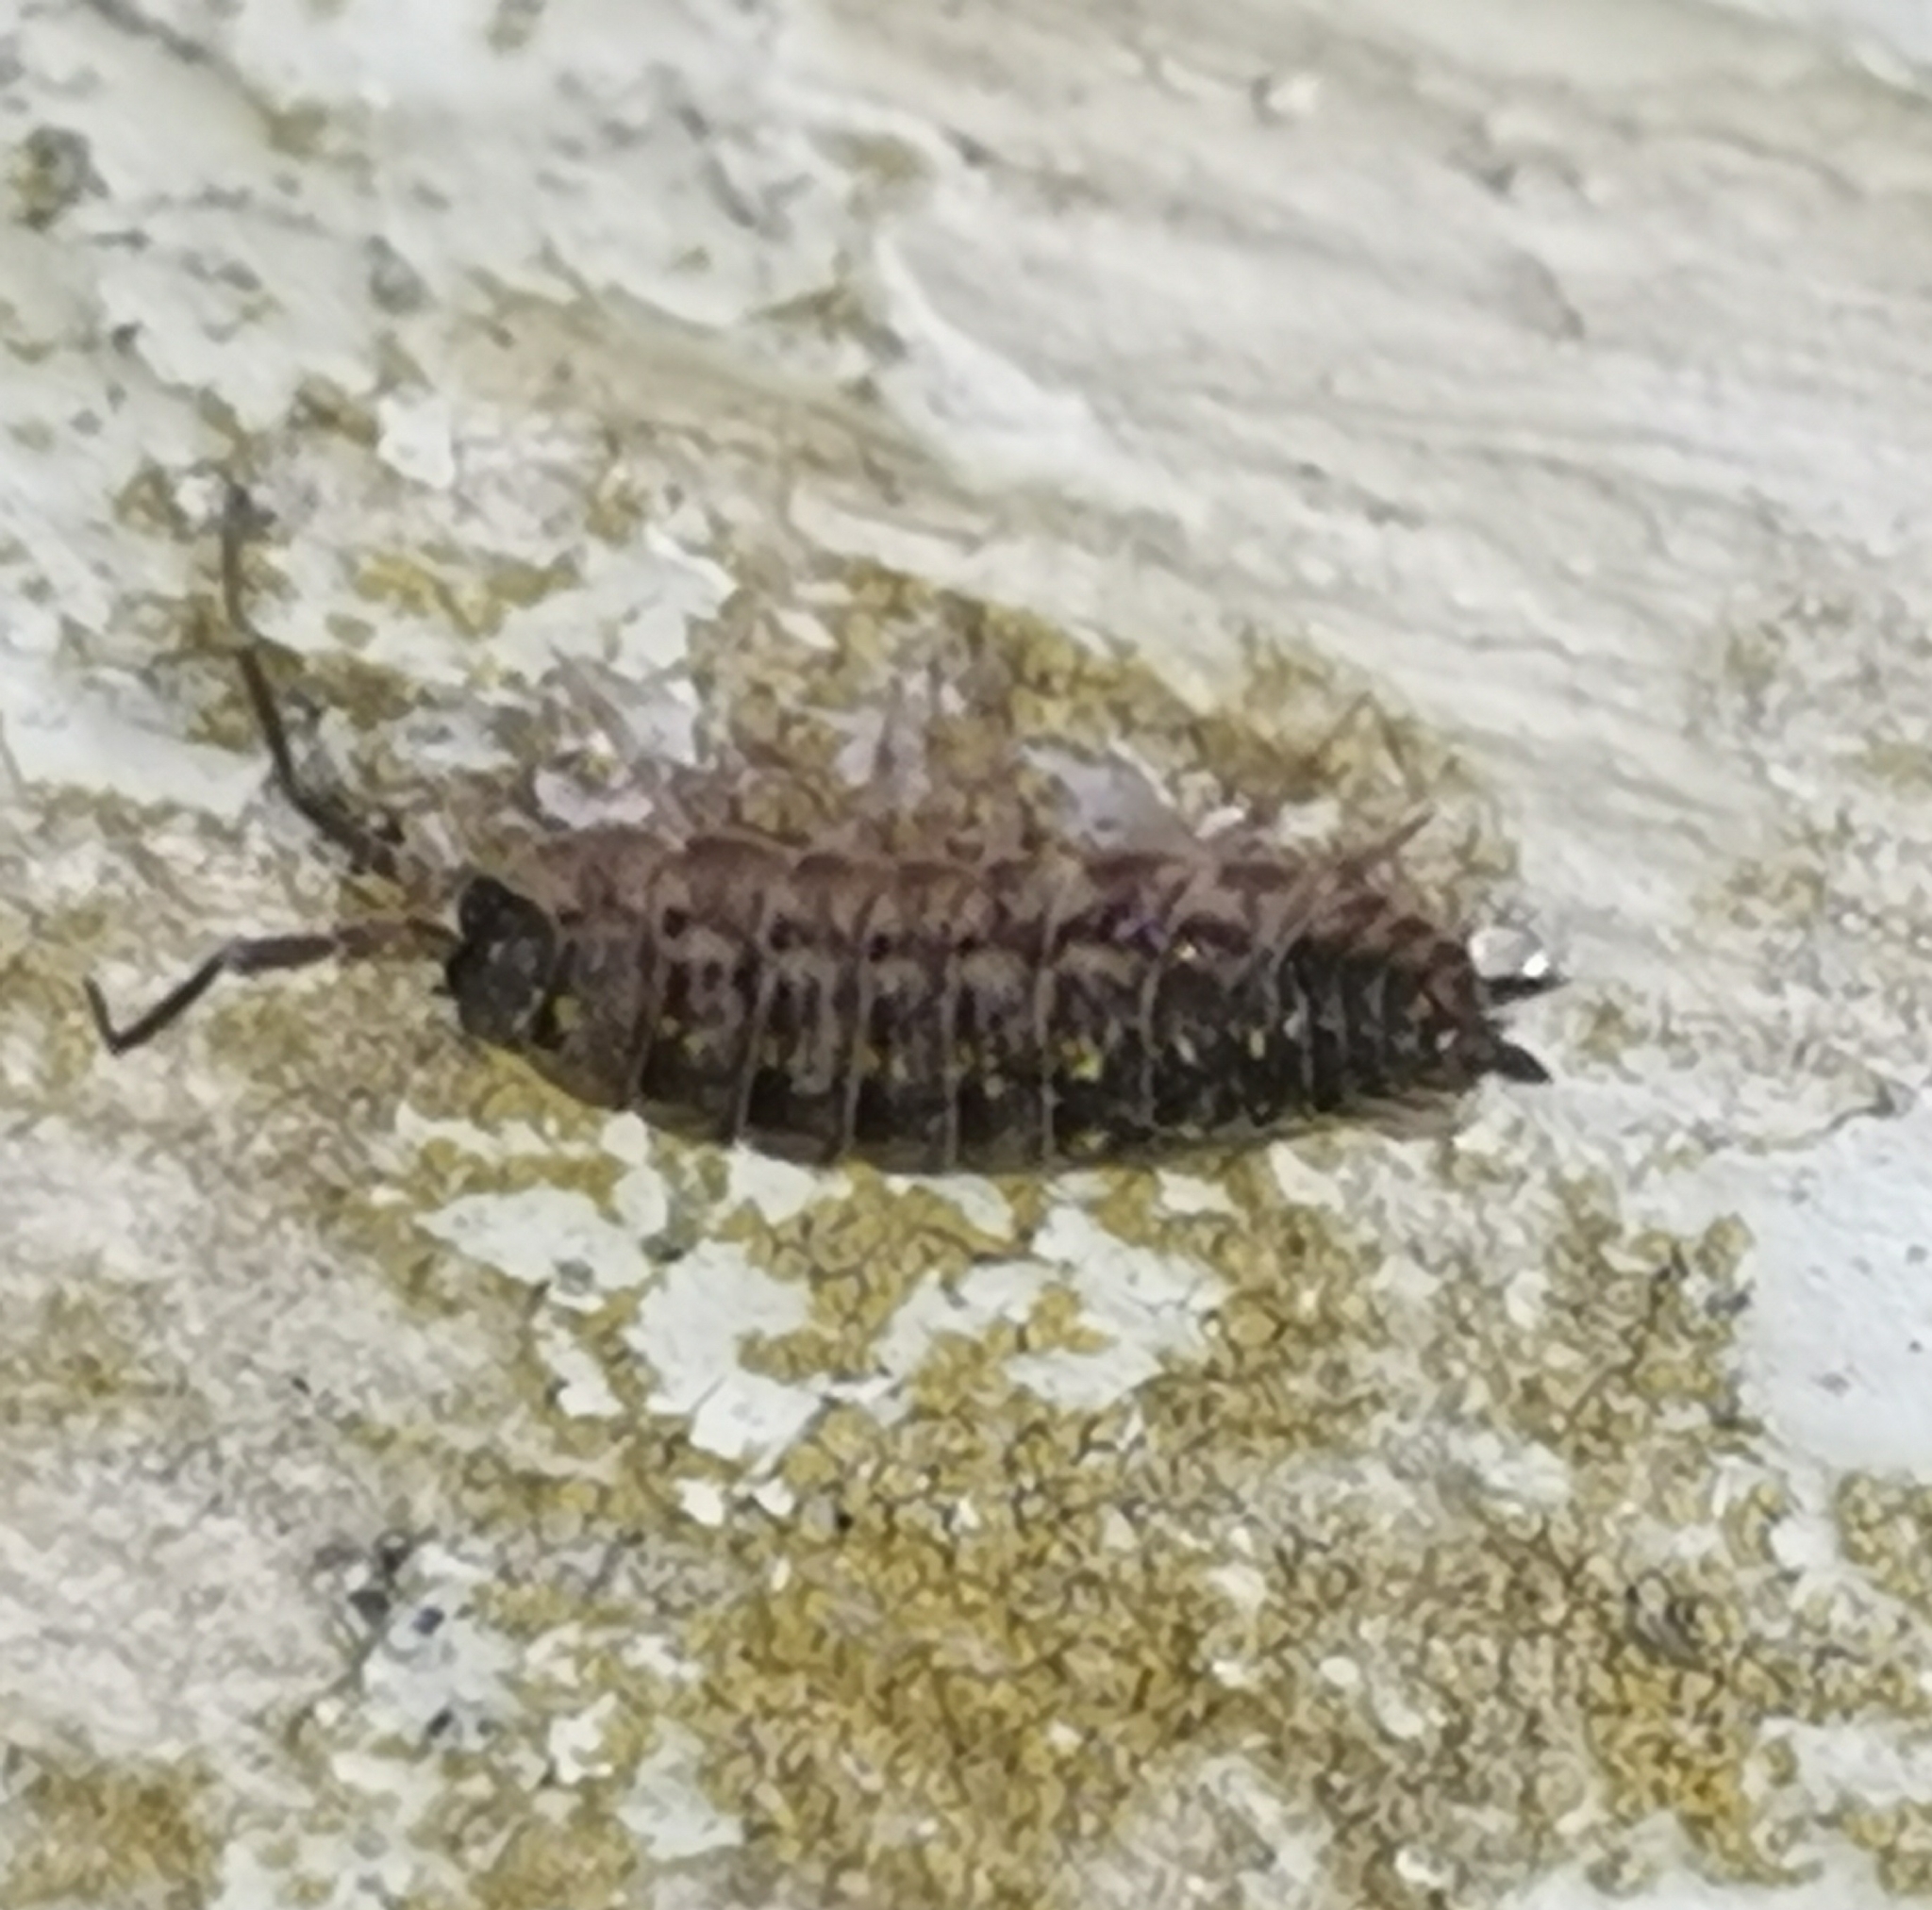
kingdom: Animalia
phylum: Arthropoda
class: Malacostraca
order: Isopoda
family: Porcellionidae
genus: Porcellio
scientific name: Porcellio spinicornis
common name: Painted woodlouse
